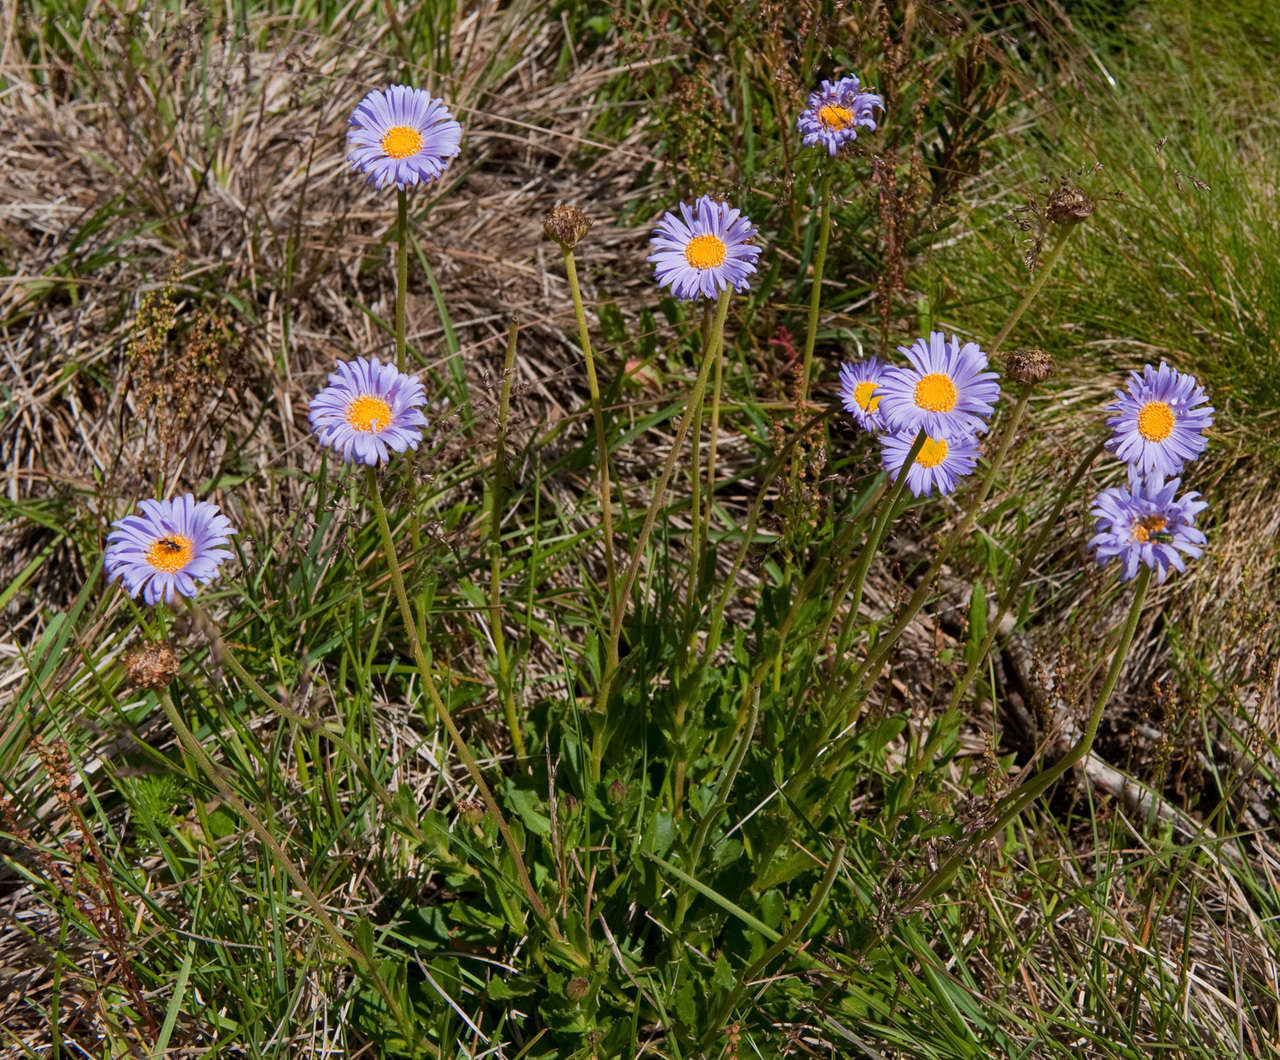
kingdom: Plantae
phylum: Tracheophyta
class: Magnoliopsida
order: Asterales
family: Asteraceae
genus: Brachyscome
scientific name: Brachyscome spathulata
